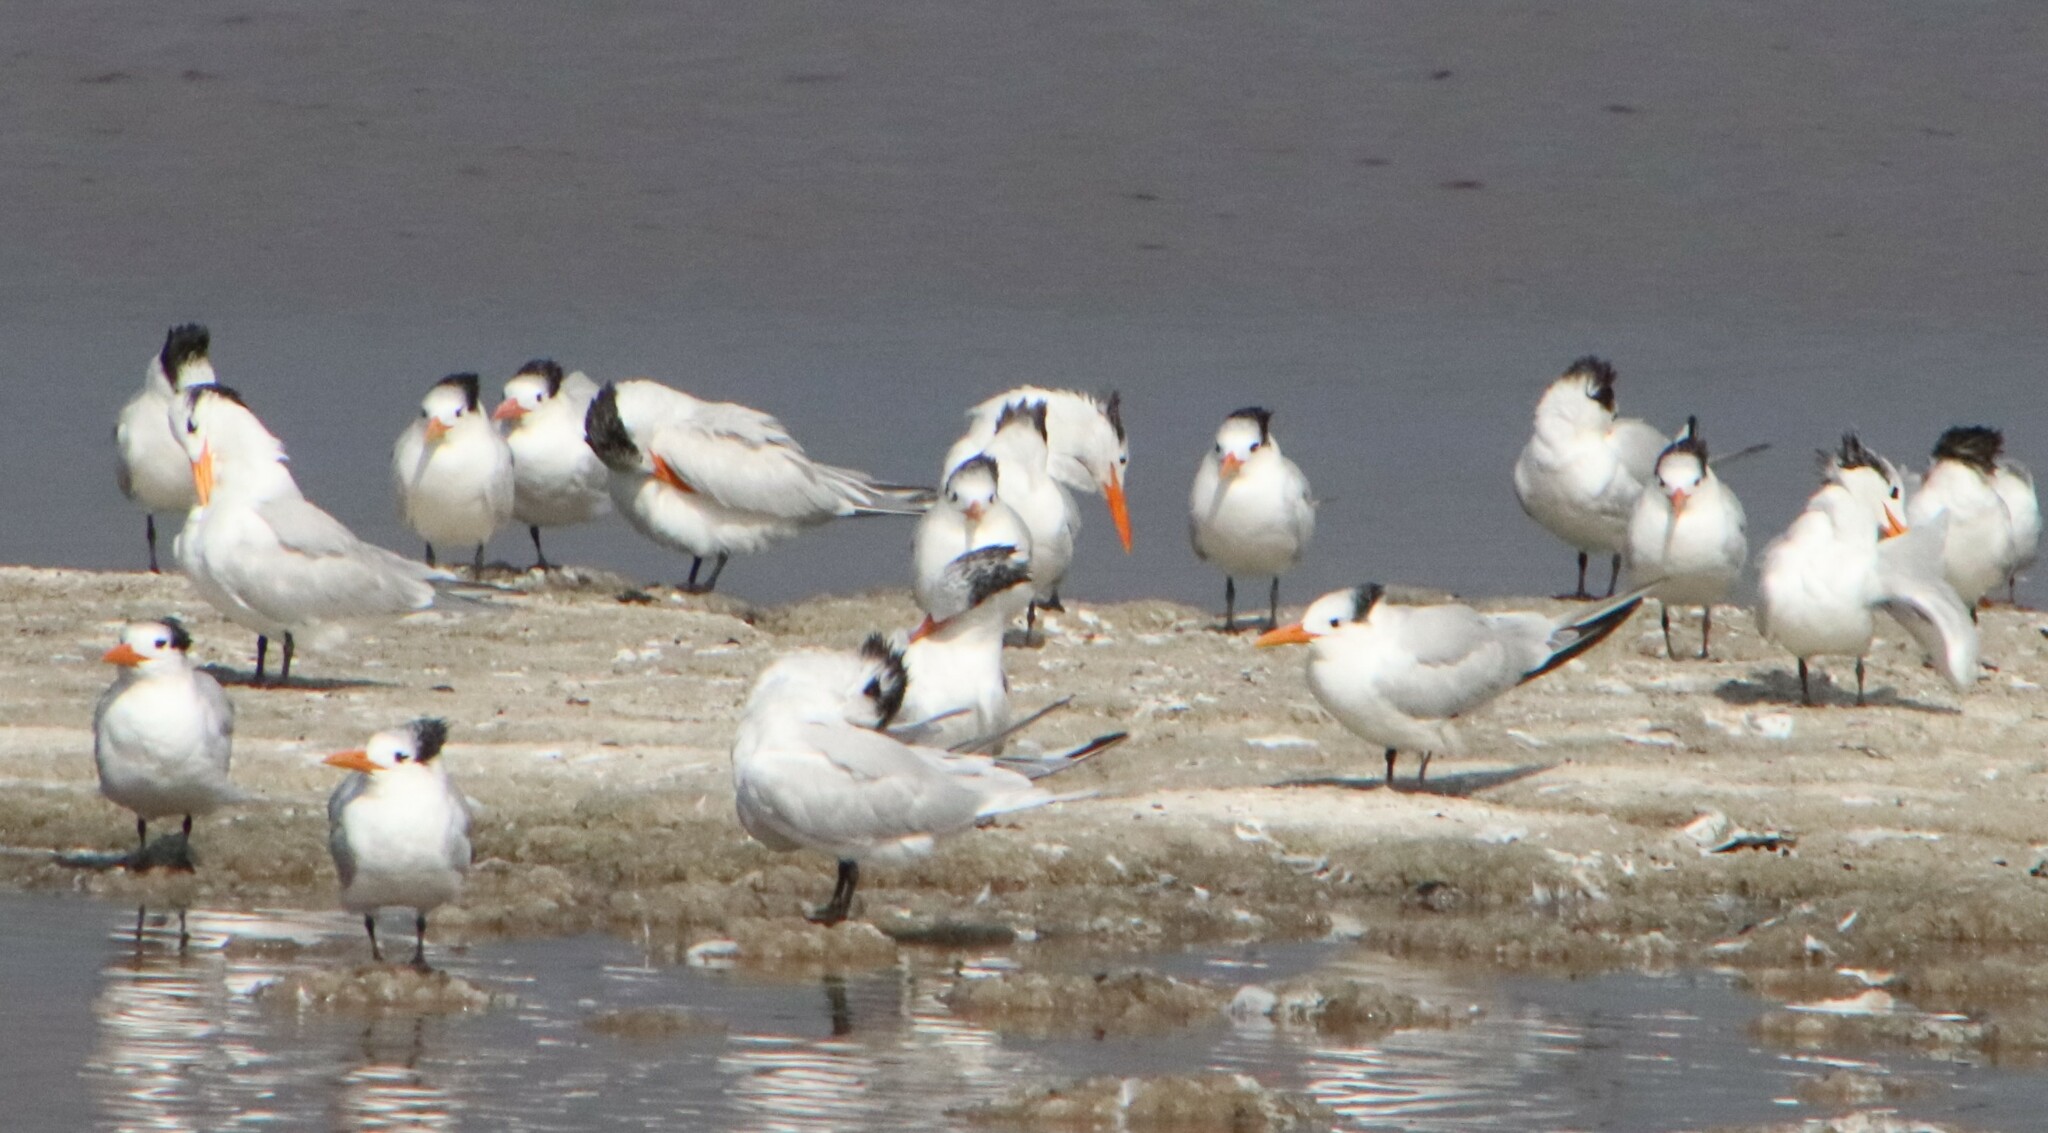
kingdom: Animalia
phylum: Chordata
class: Aves
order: Charadriiformes
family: Laridae
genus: Thalasseus
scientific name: Thalasseus maximus
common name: Royal tern
